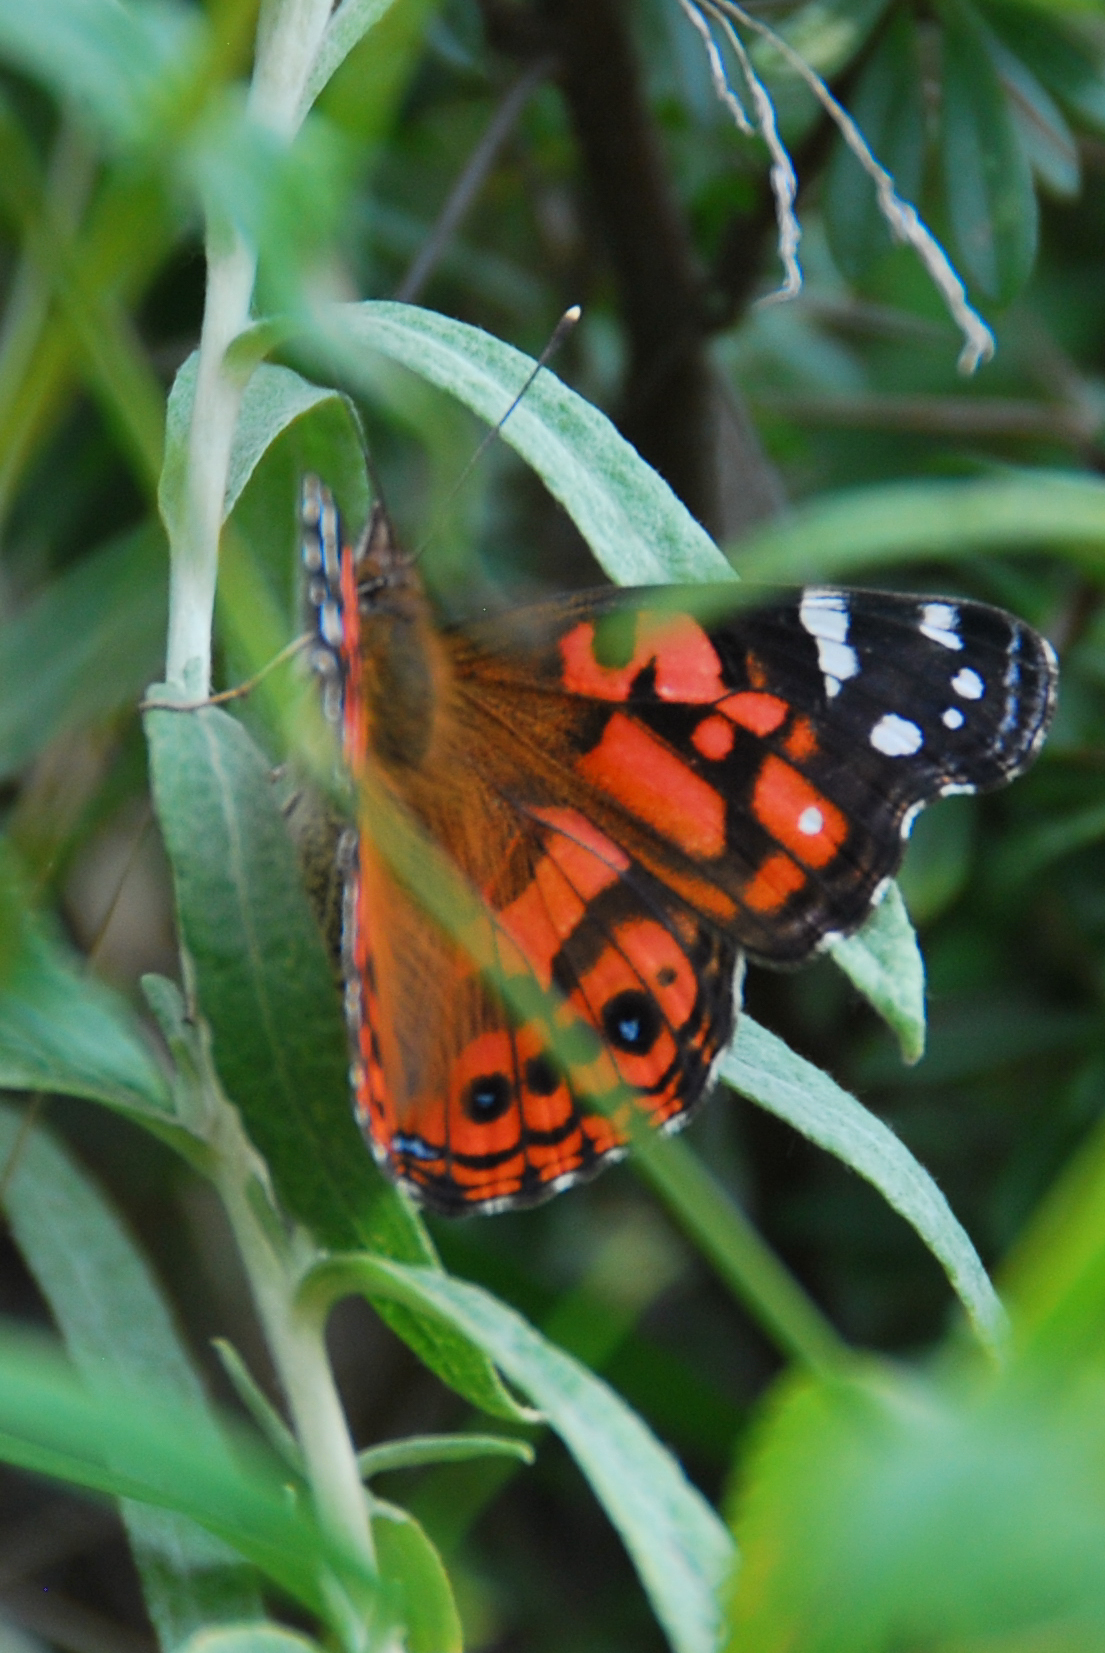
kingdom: Animalia
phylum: Arthropoda
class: Insecta
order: Lepidoptera
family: Nymphalidae
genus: Vanessa
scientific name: Vanessa altissima
